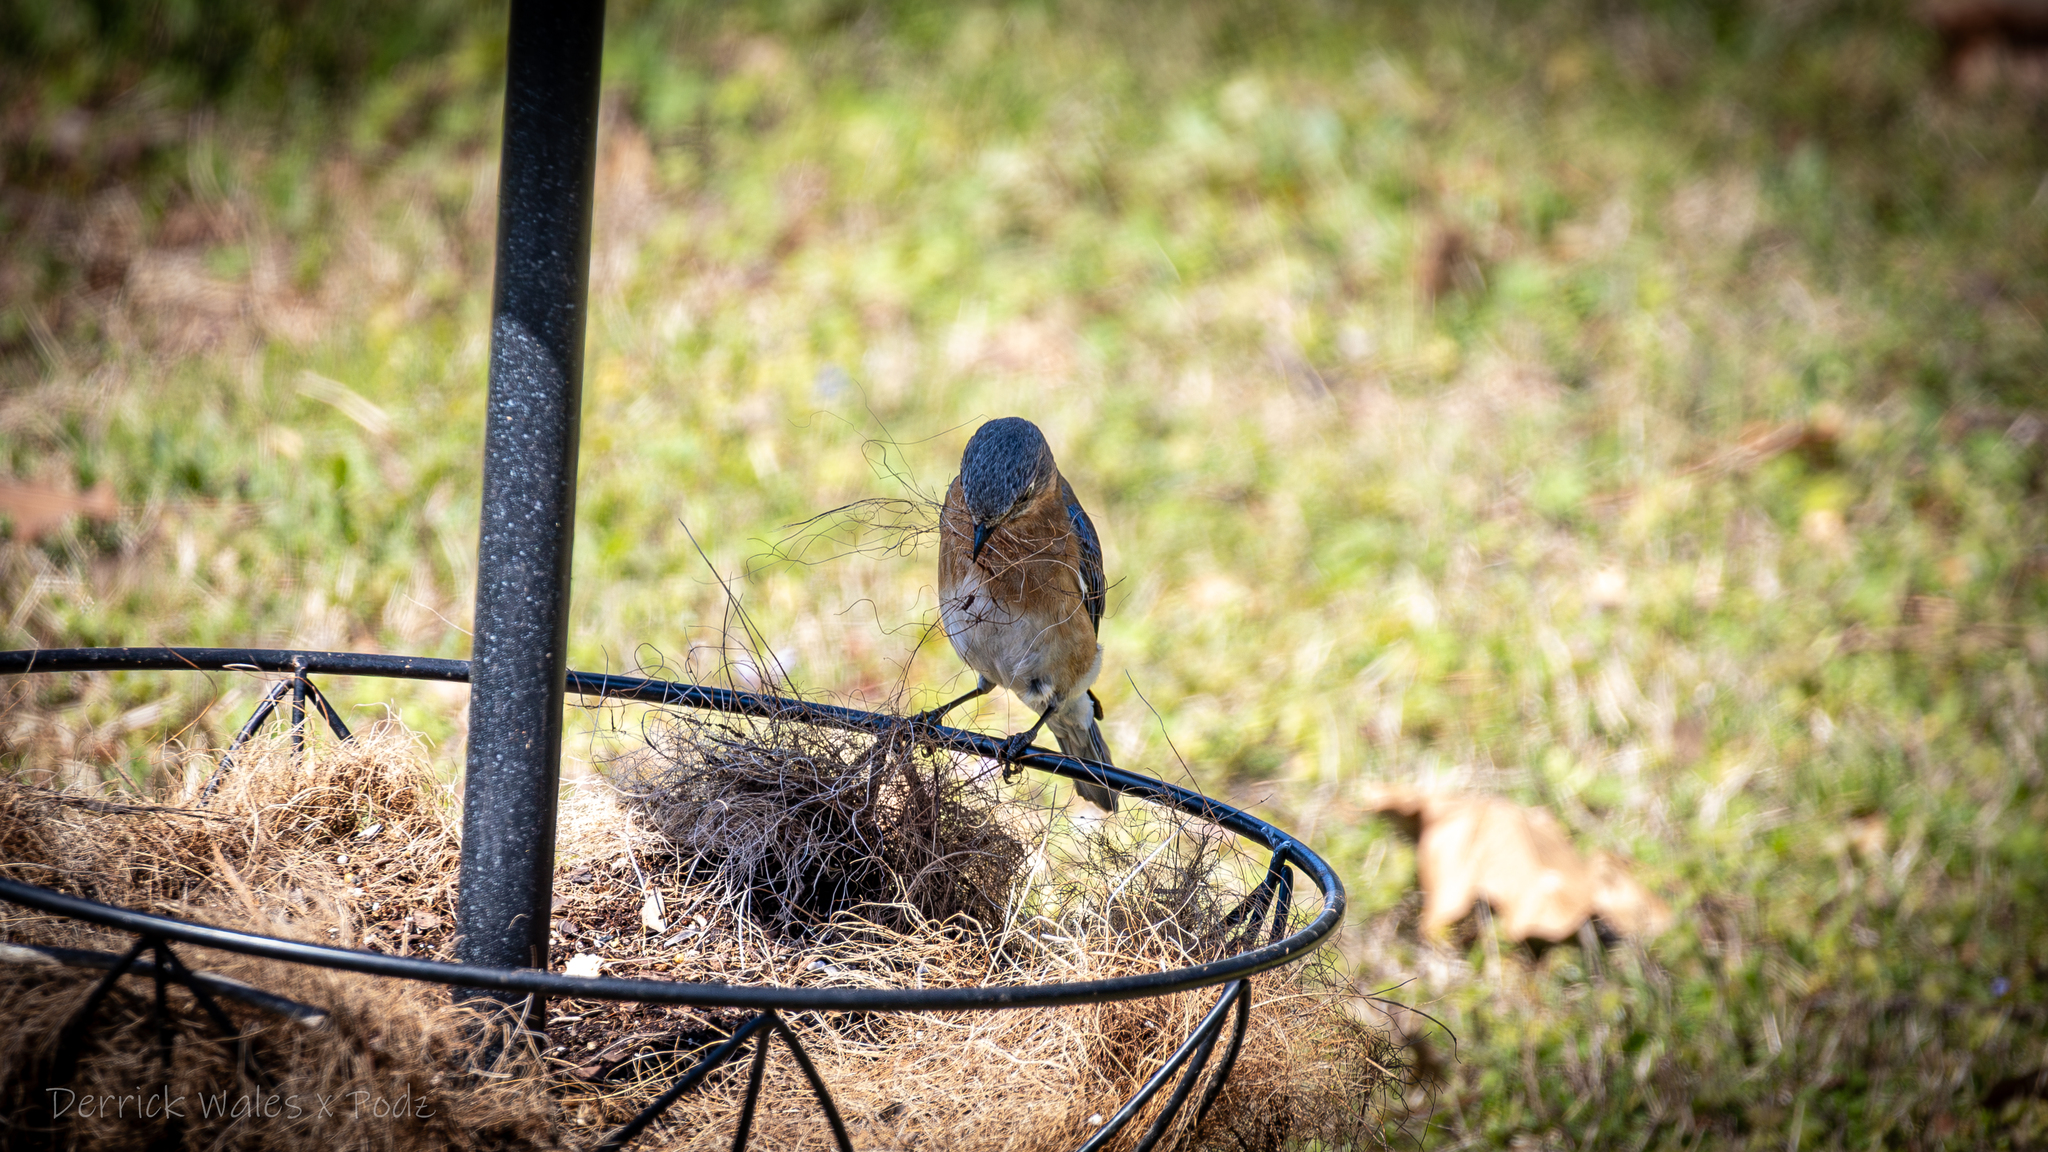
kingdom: Animalia
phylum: Chordata
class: Aves
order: Passeriformes
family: Turdidae
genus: Sialia
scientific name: Sialia sialis
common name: Eastern bluebird
